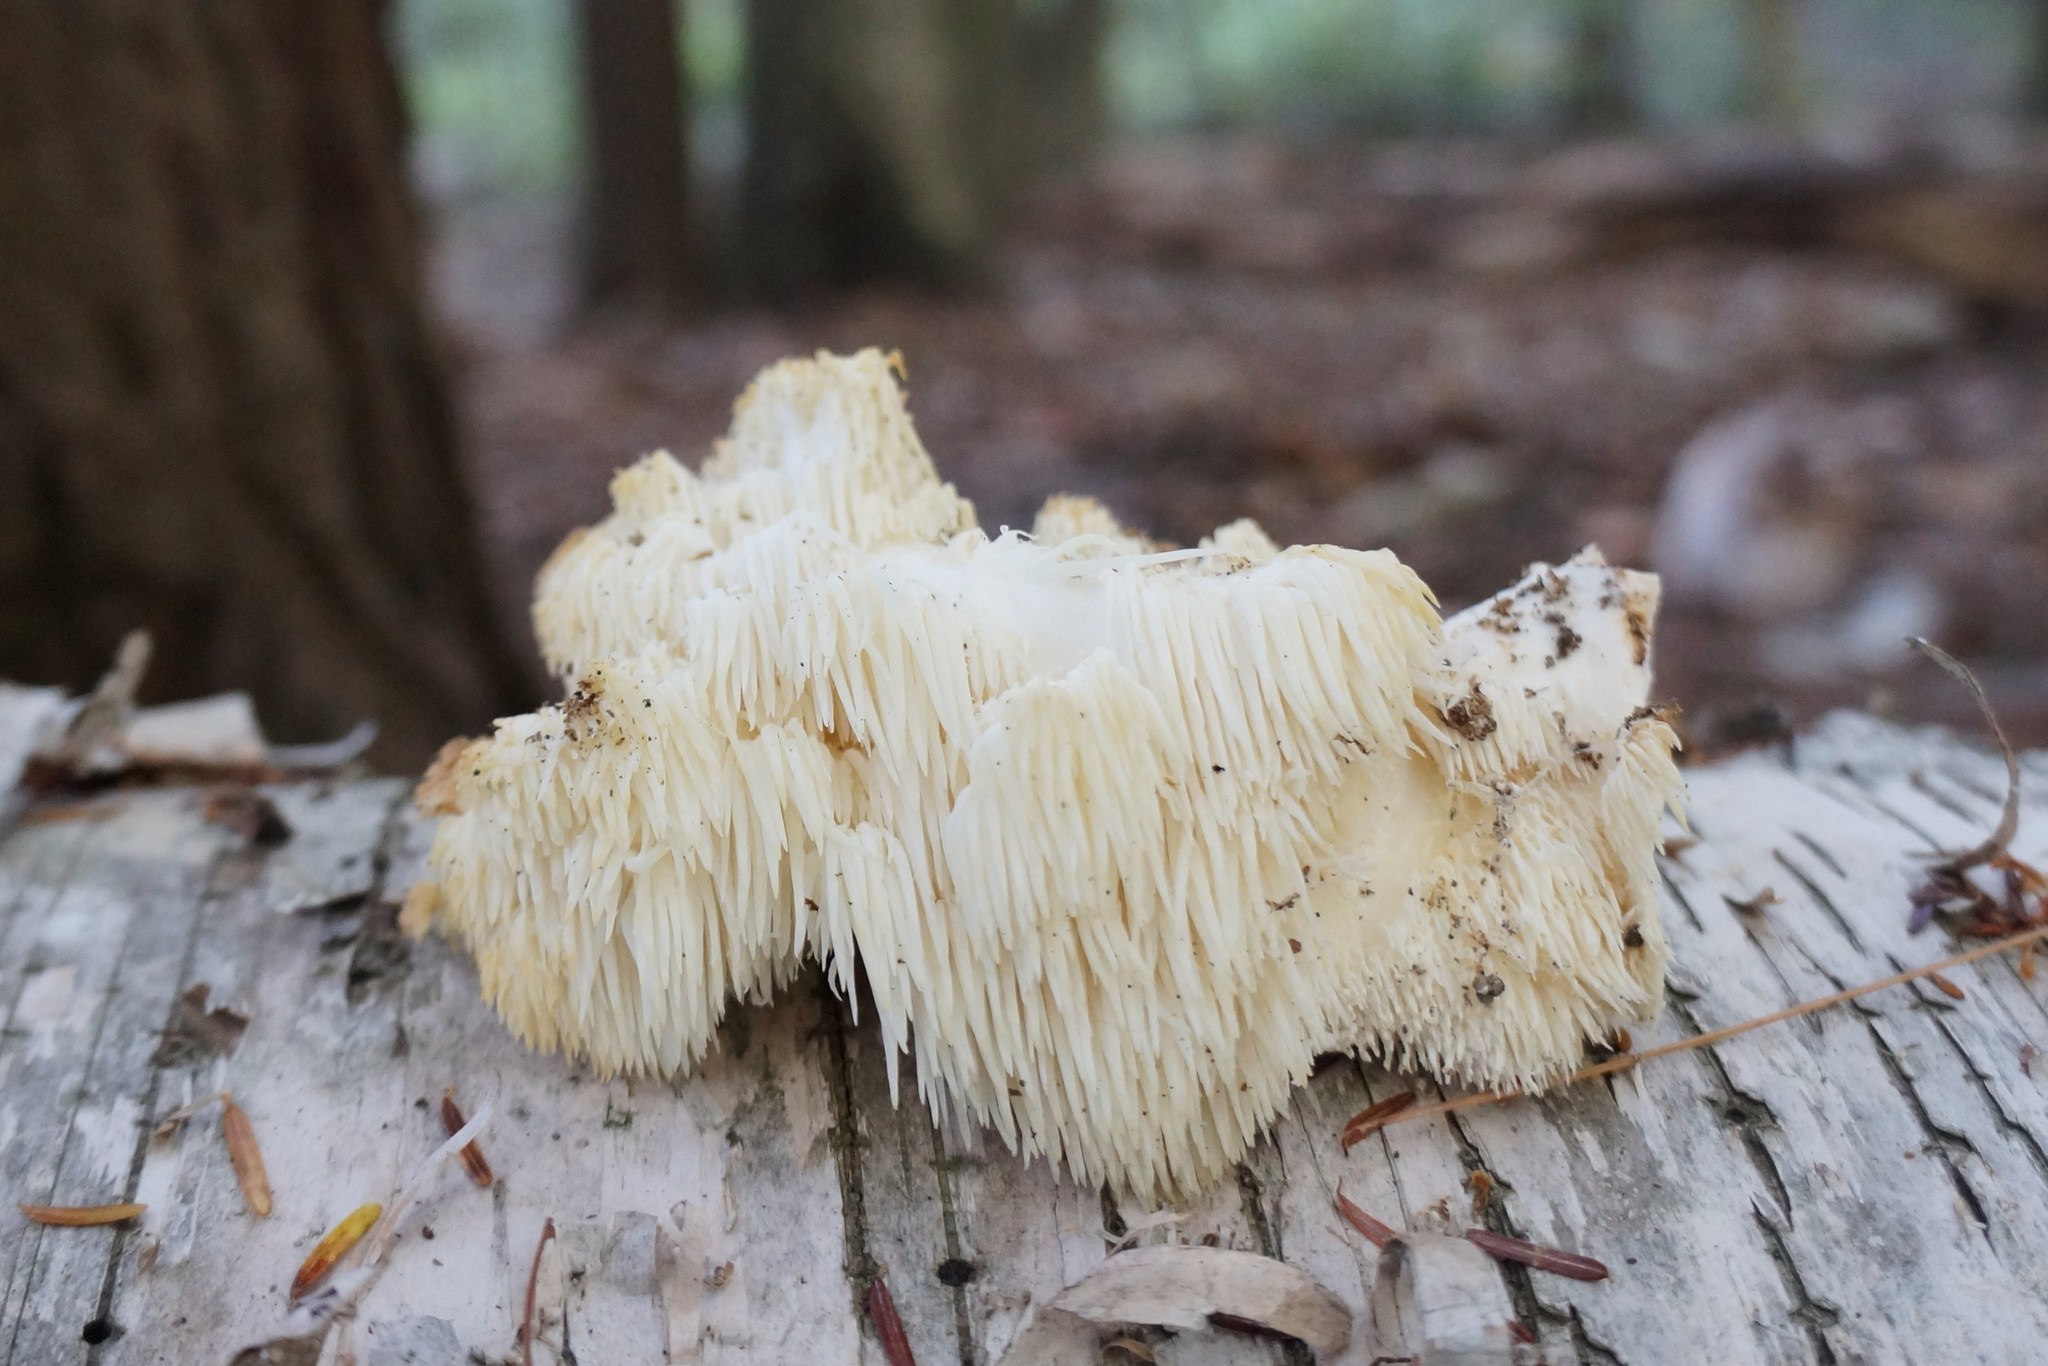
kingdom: Fungi
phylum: Basidiomycota
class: Agaricomycetes
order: Russulales
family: Hericiaceae
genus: Hericium
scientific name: Hericium americanum
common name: Bear's head tooth
